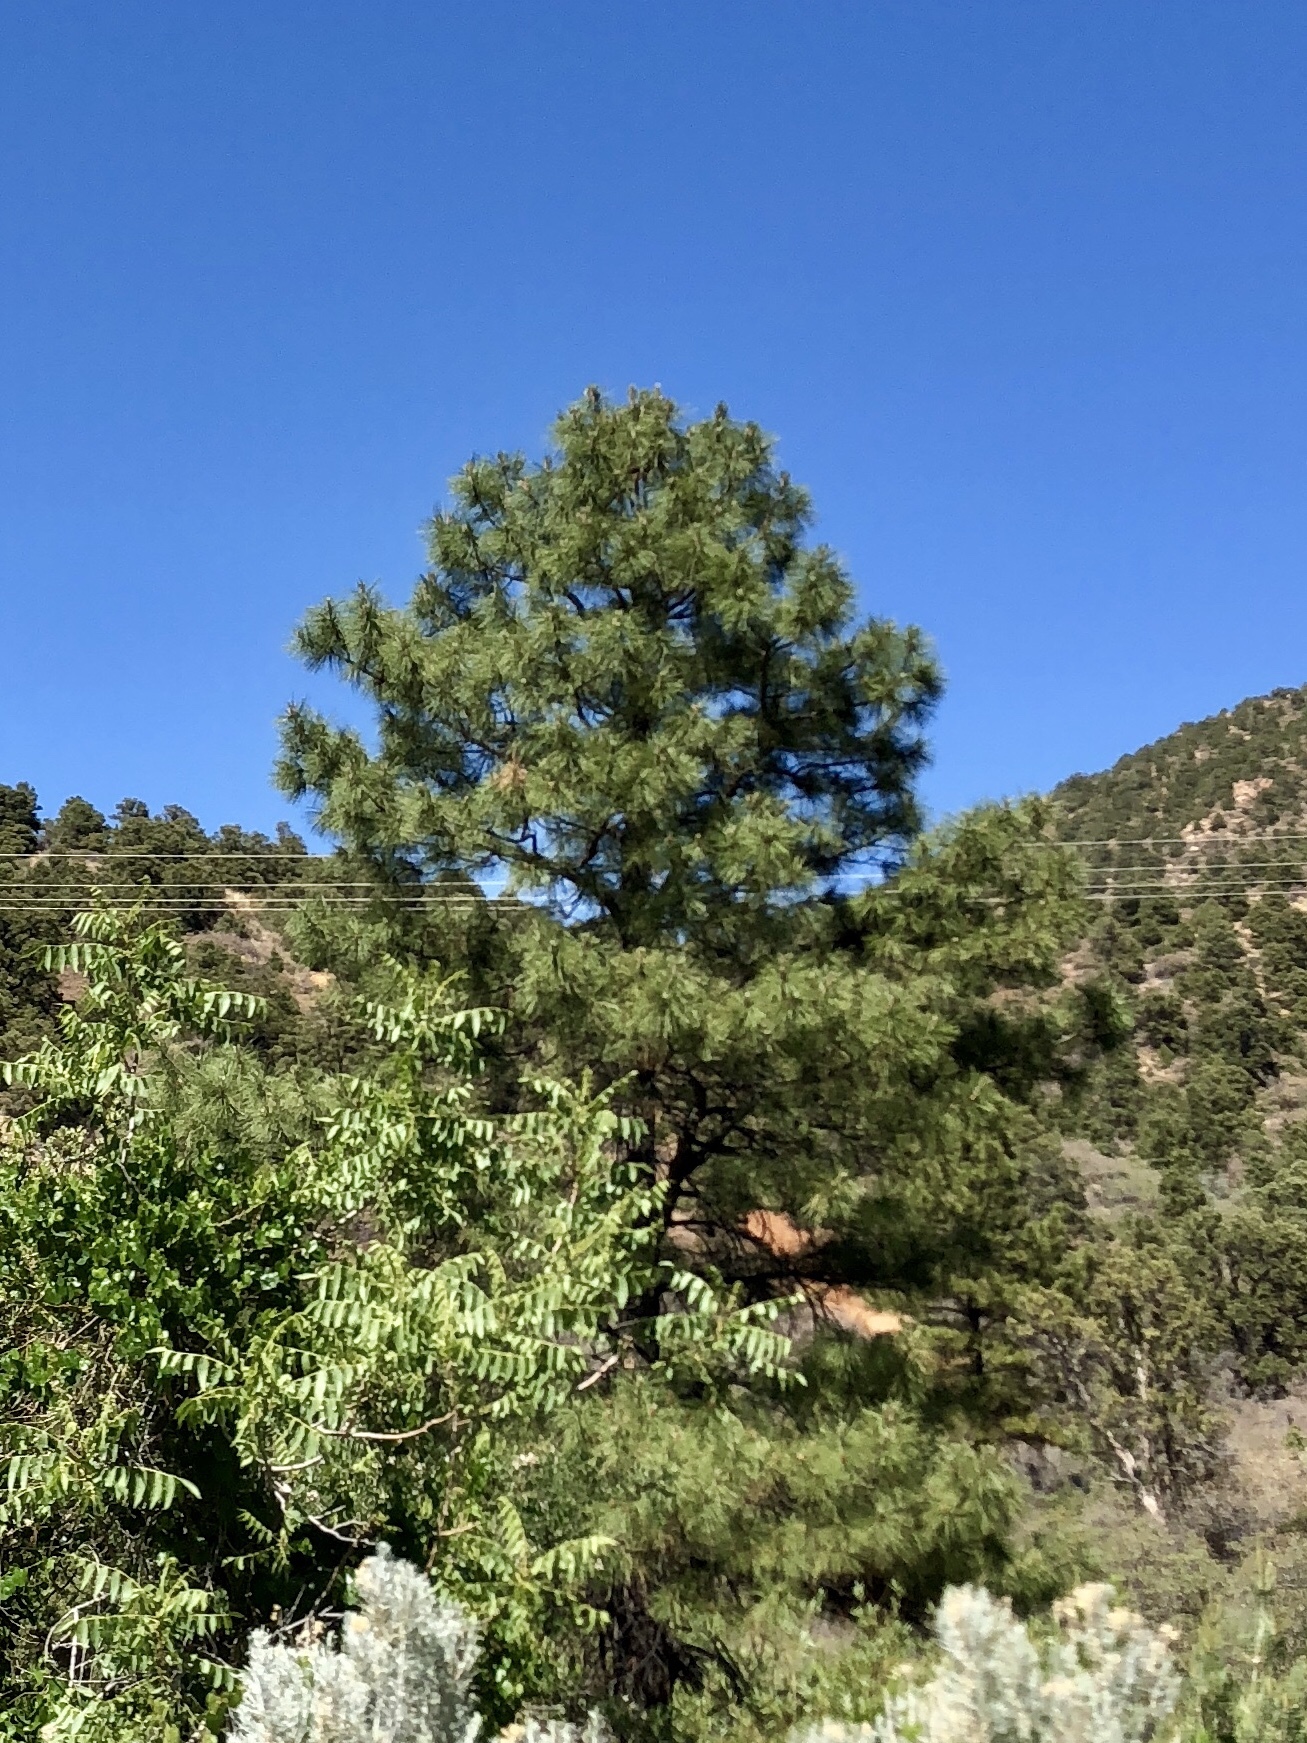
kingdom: Plantae
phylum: Tracheophyta
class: Pinopsida
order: Pinales
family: Pinaceae
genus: Pinus
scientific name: Pinus ponderosa
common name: Western yellow-pine
